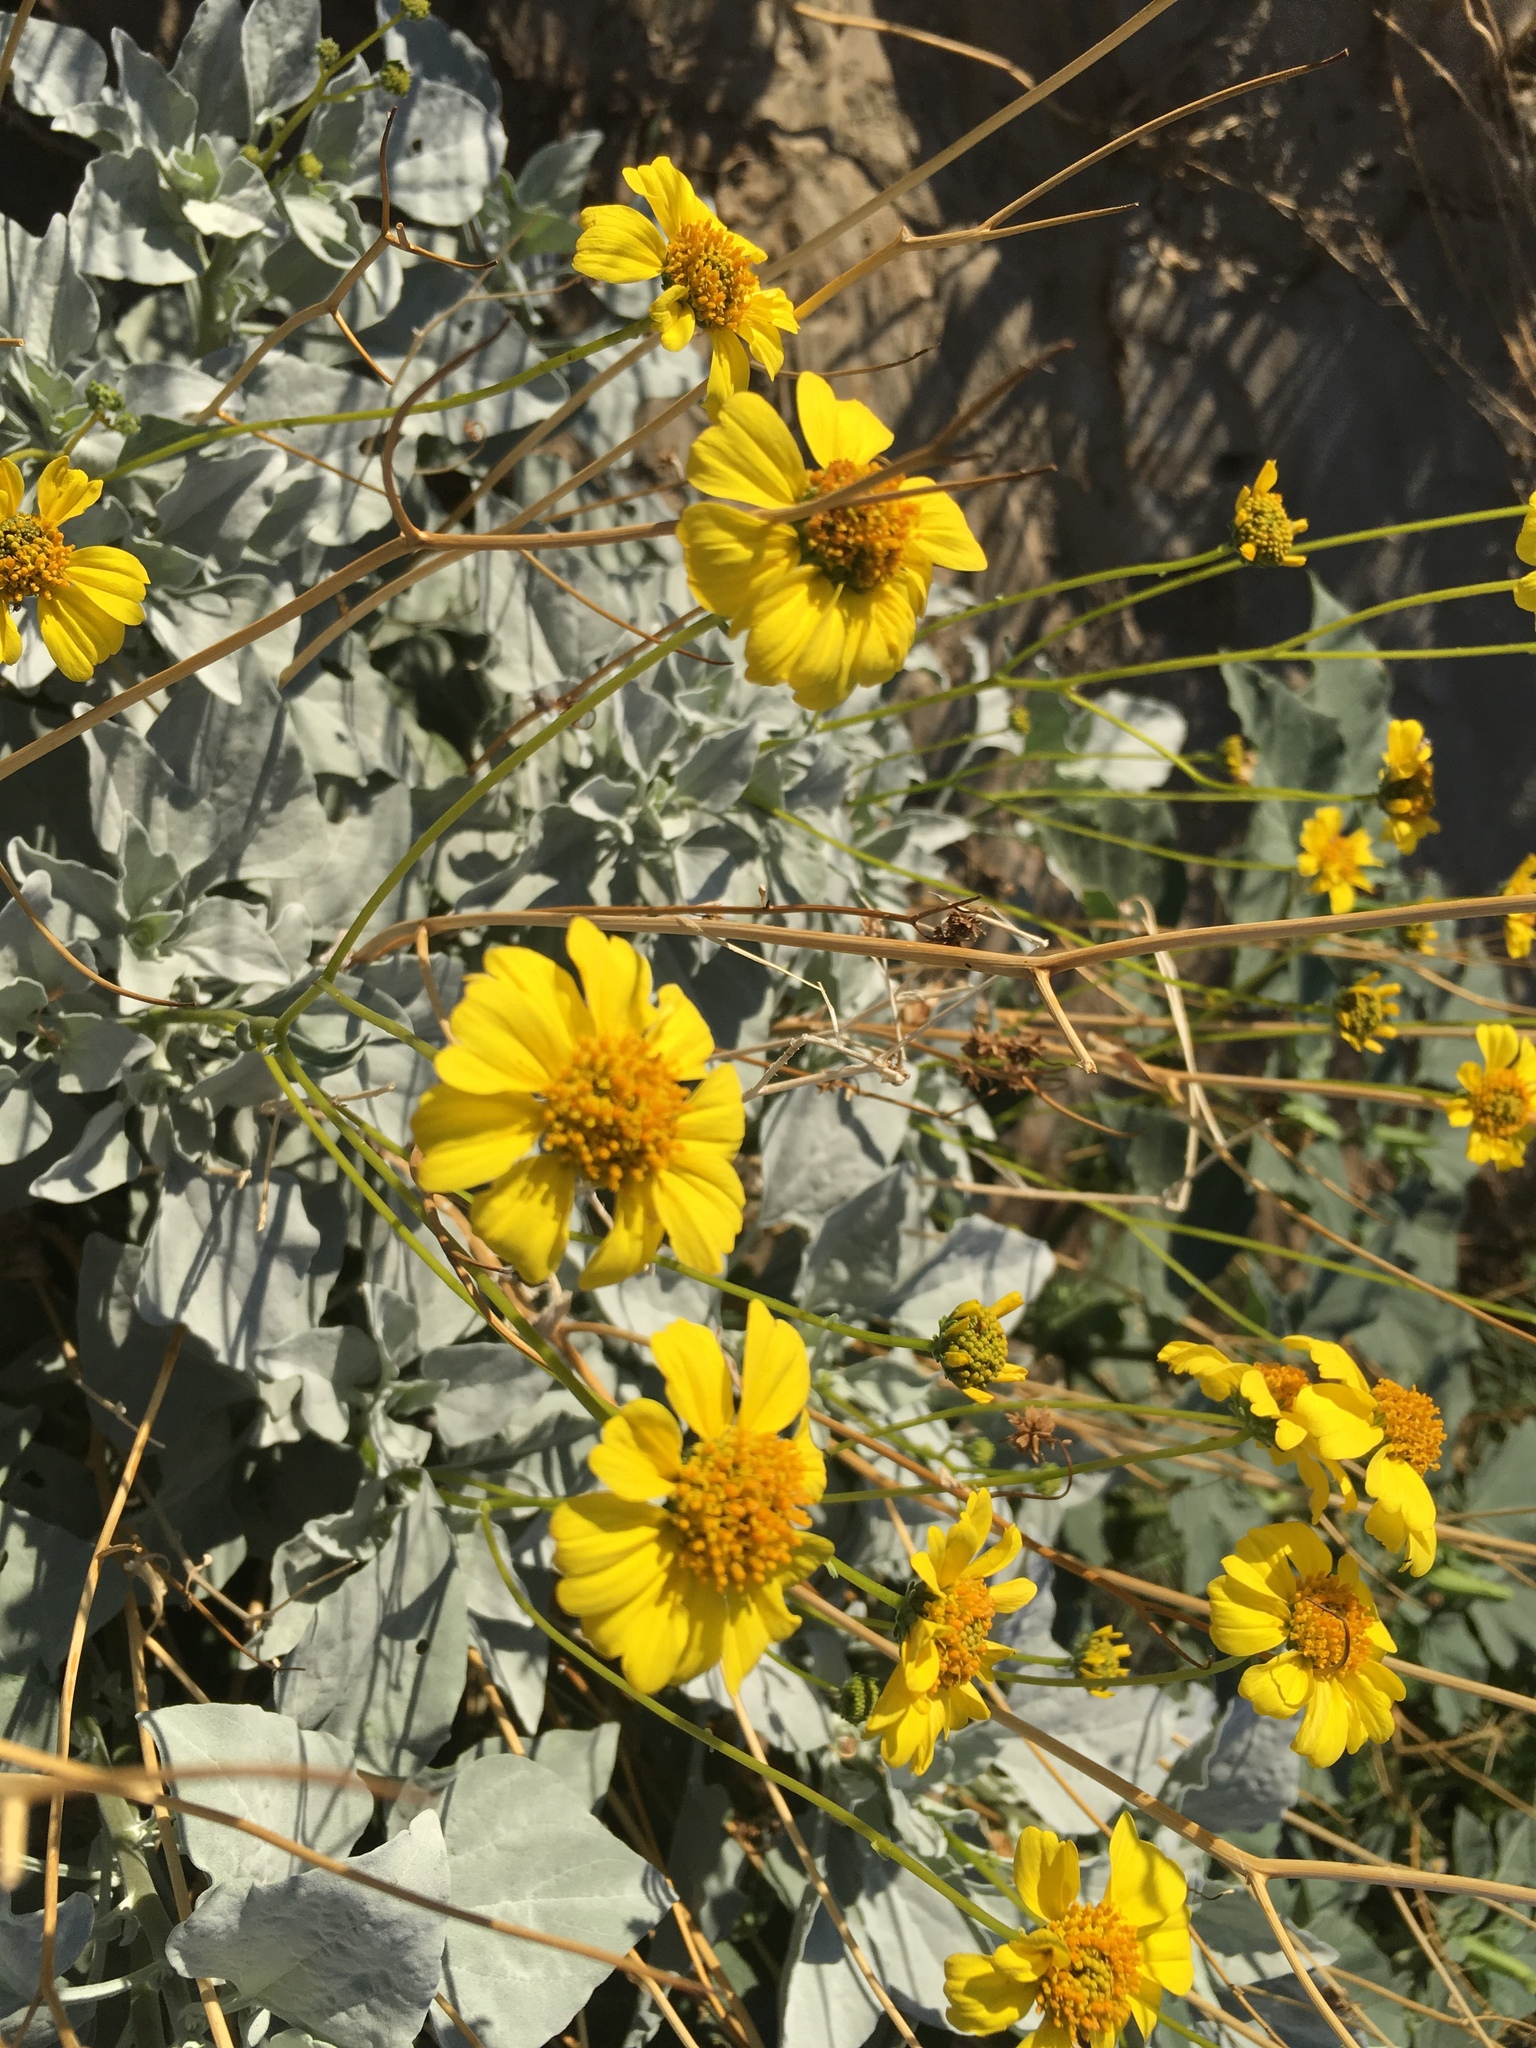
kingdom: Plantae
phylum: Tracheophyta
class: Magnoliopsida
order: Asterales
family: Asteraceae
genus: Encelia
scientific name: Encelia farinosa
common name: Brittlebush
